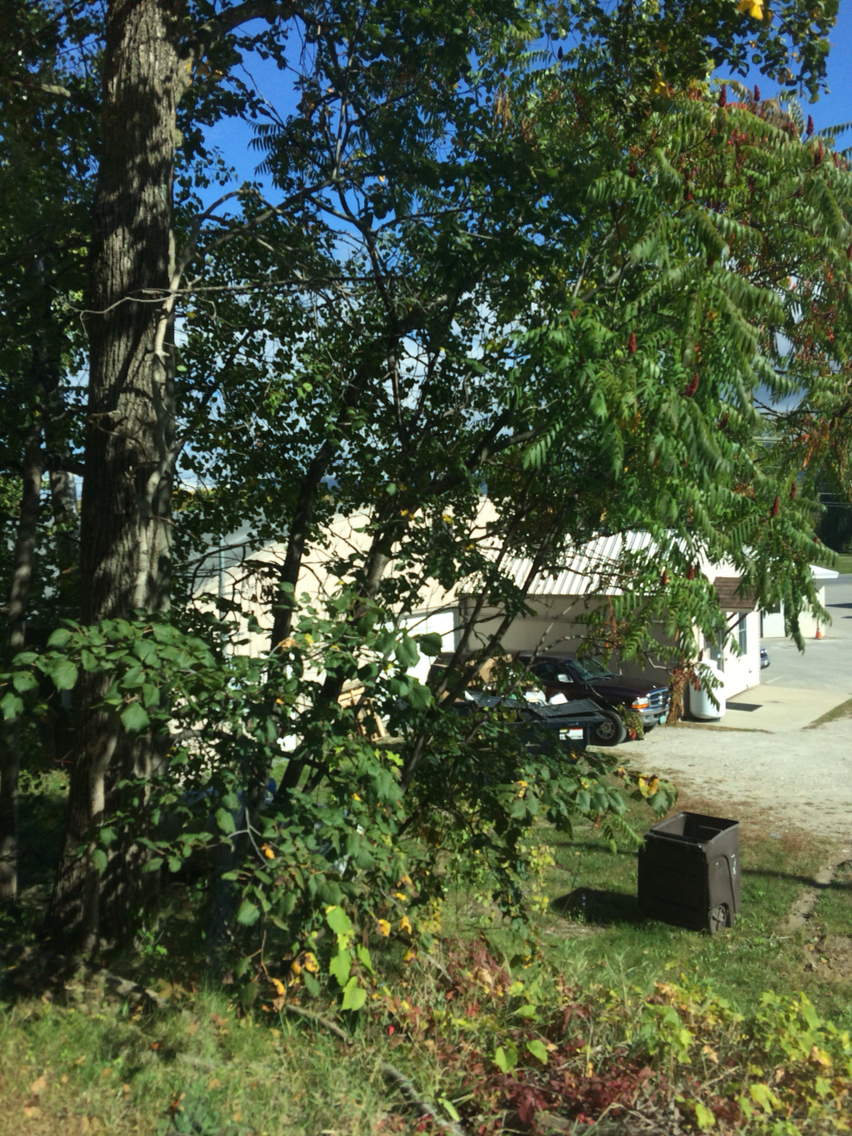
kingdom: Plantae
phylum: Tracheophyta
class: Magnoliopsida
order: Sapindales
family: Anacardiaceae
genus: Rhus
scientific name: Rhus typhina
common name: Staghorn sumac
